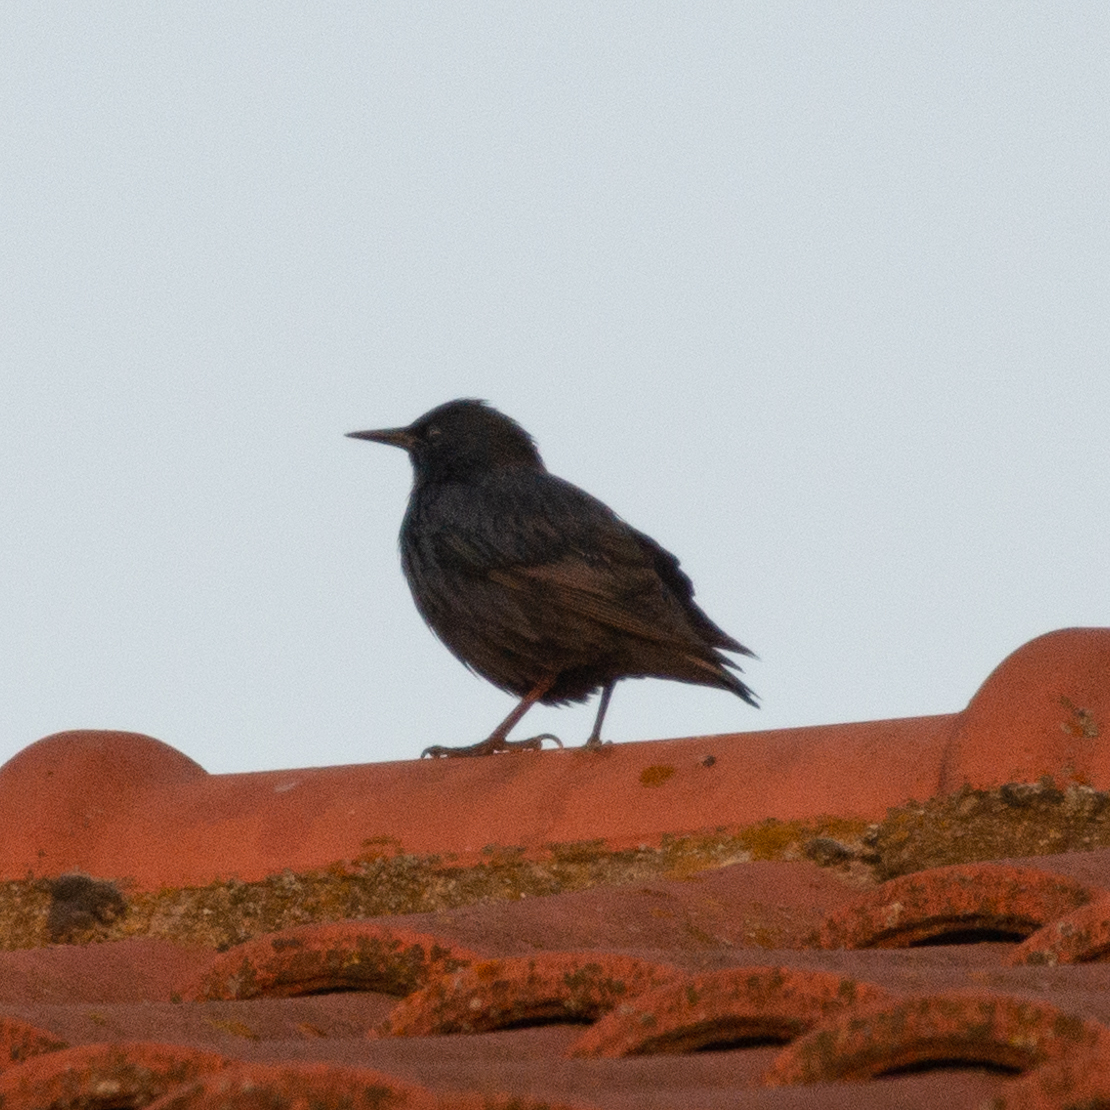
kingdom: Animalia
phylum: Chordata
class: Aves
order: Passeriformes
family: Sturnidae
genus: Sturnus
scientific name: Sturnus unicolor
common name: Spotless starling
